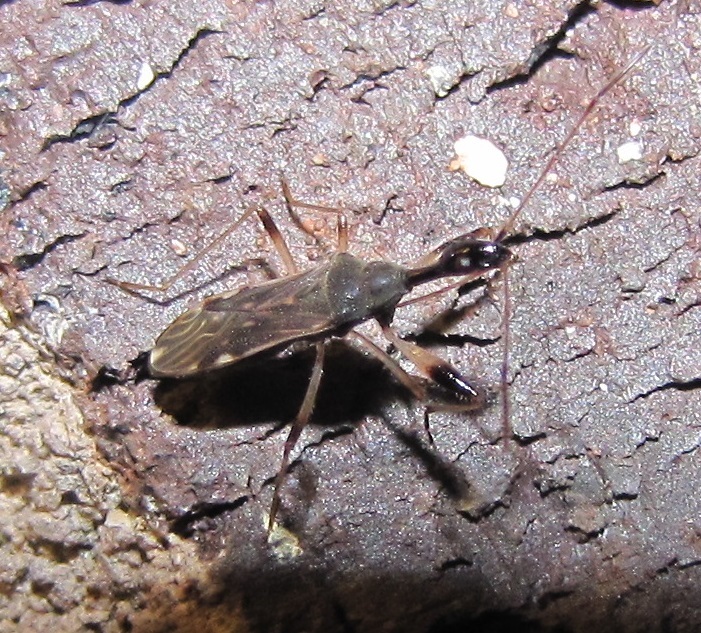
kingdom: Animalia
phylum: Arthropoda
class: Insecta
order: Hemiptera
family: Rhyparochromidae
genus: Myodocha
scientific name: Myodocha serripes
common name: Long-necked seed bug
